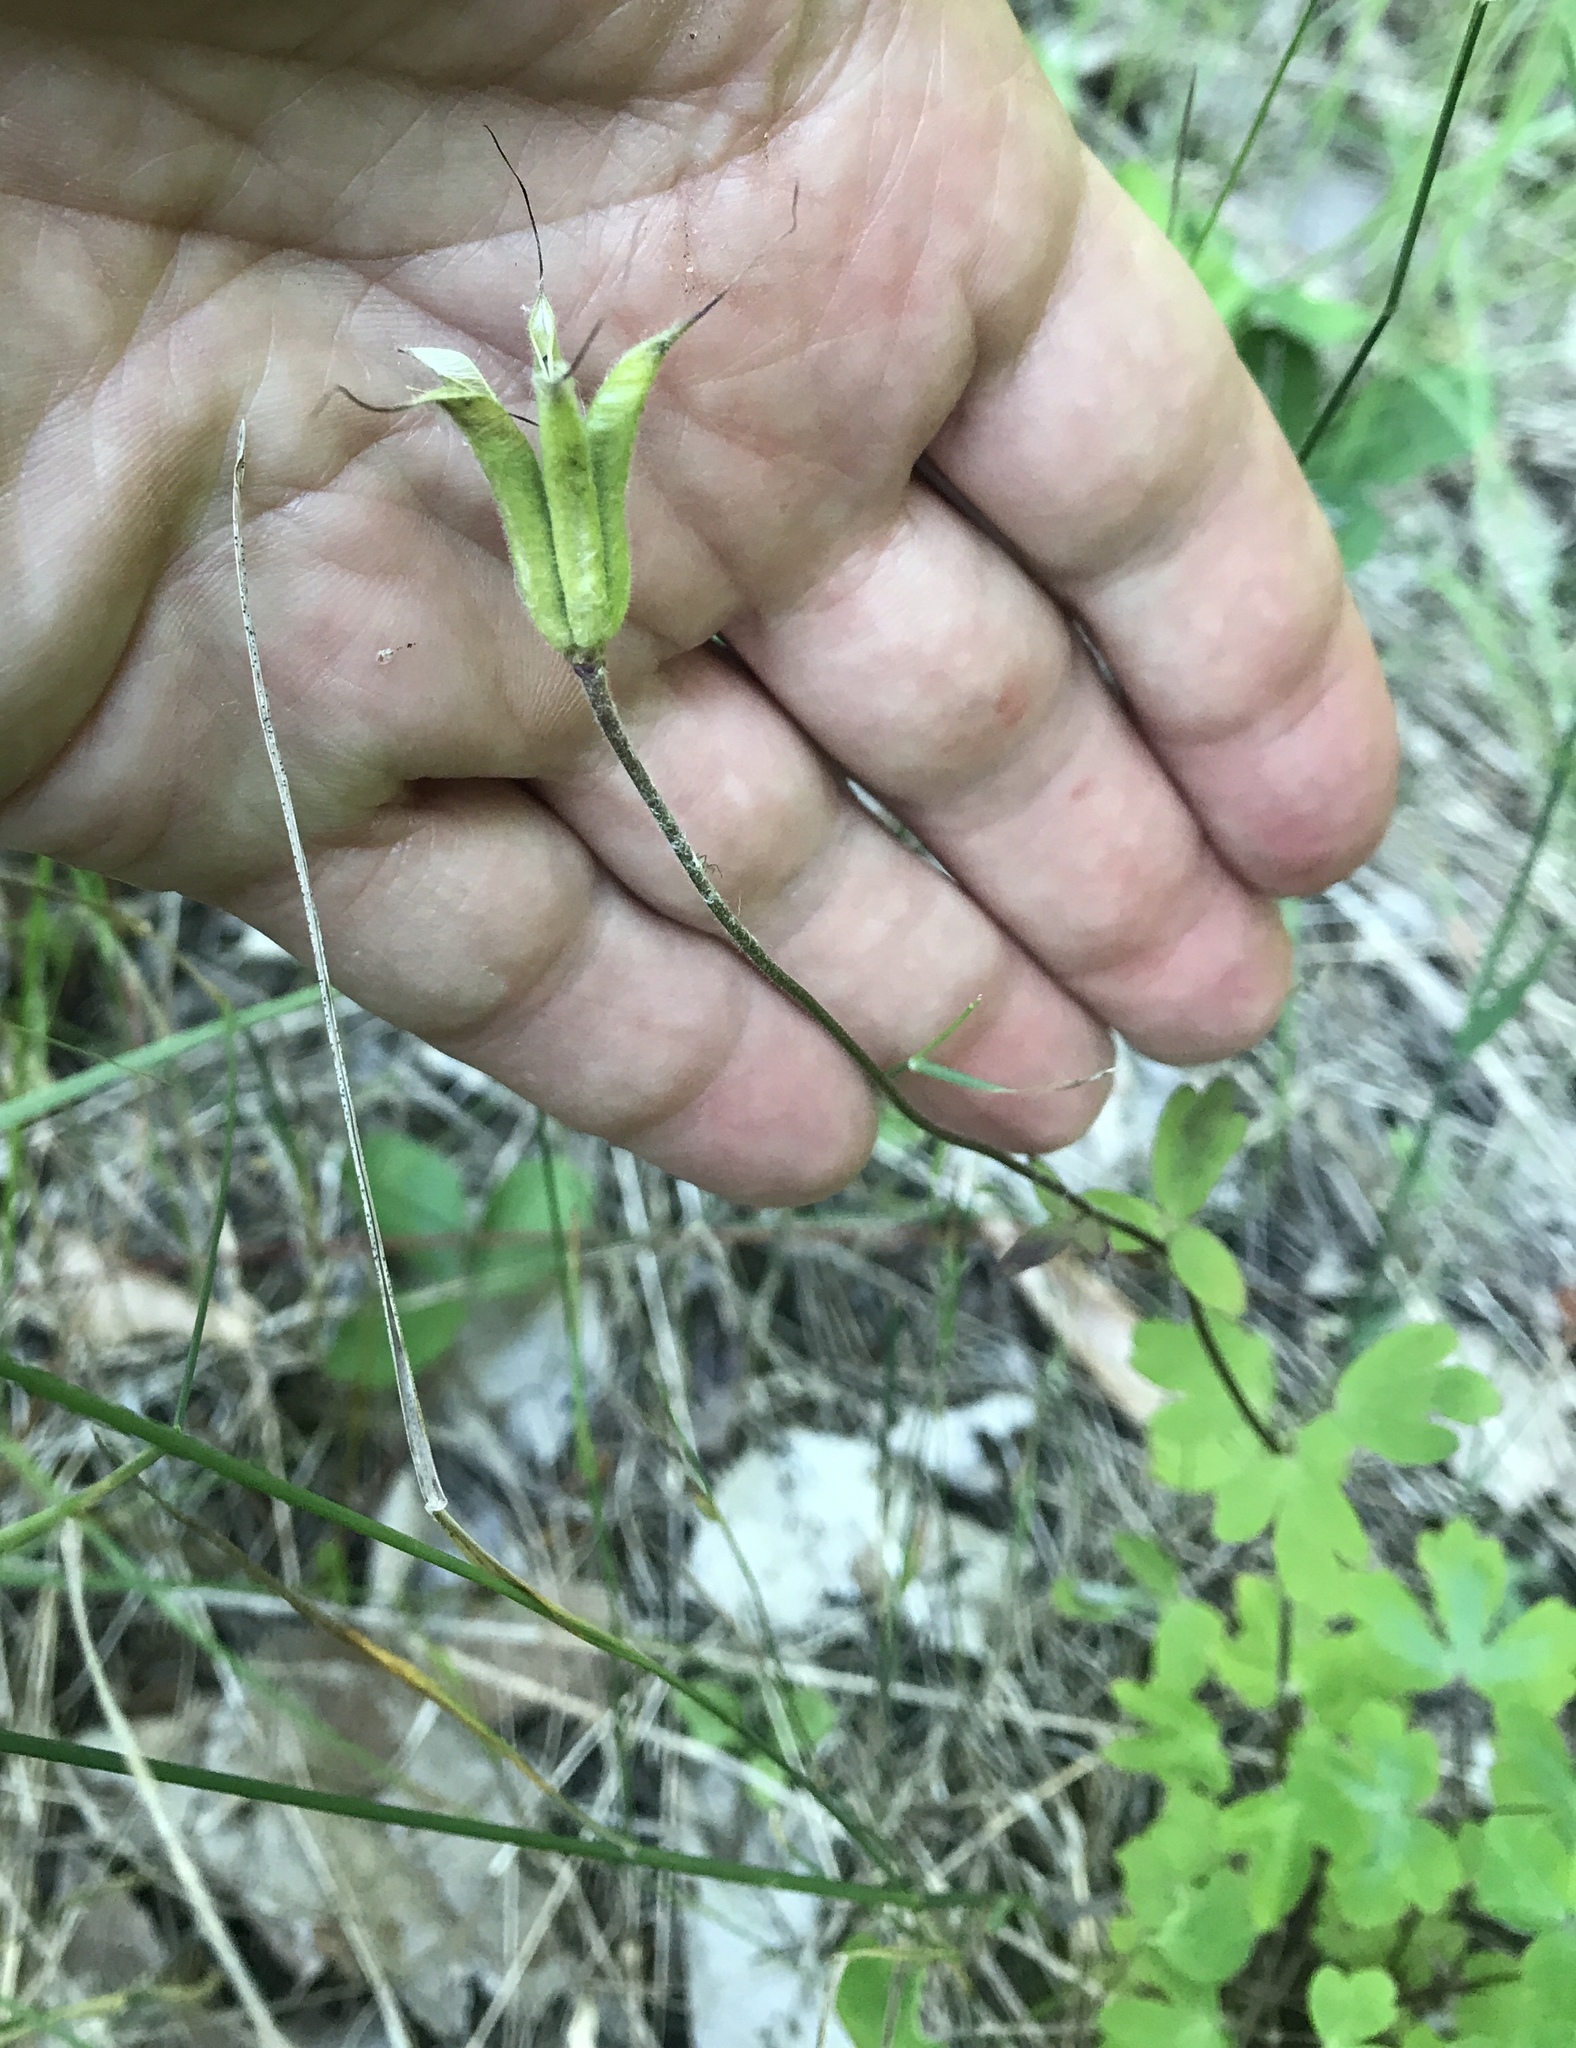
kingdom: Plantae
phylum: Tracheophyta
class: Magnoliopsida
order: Ranunculales
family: Ranunculaceae
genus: Aquilegia
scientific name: Aquilegia canadensis
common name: American columbine
